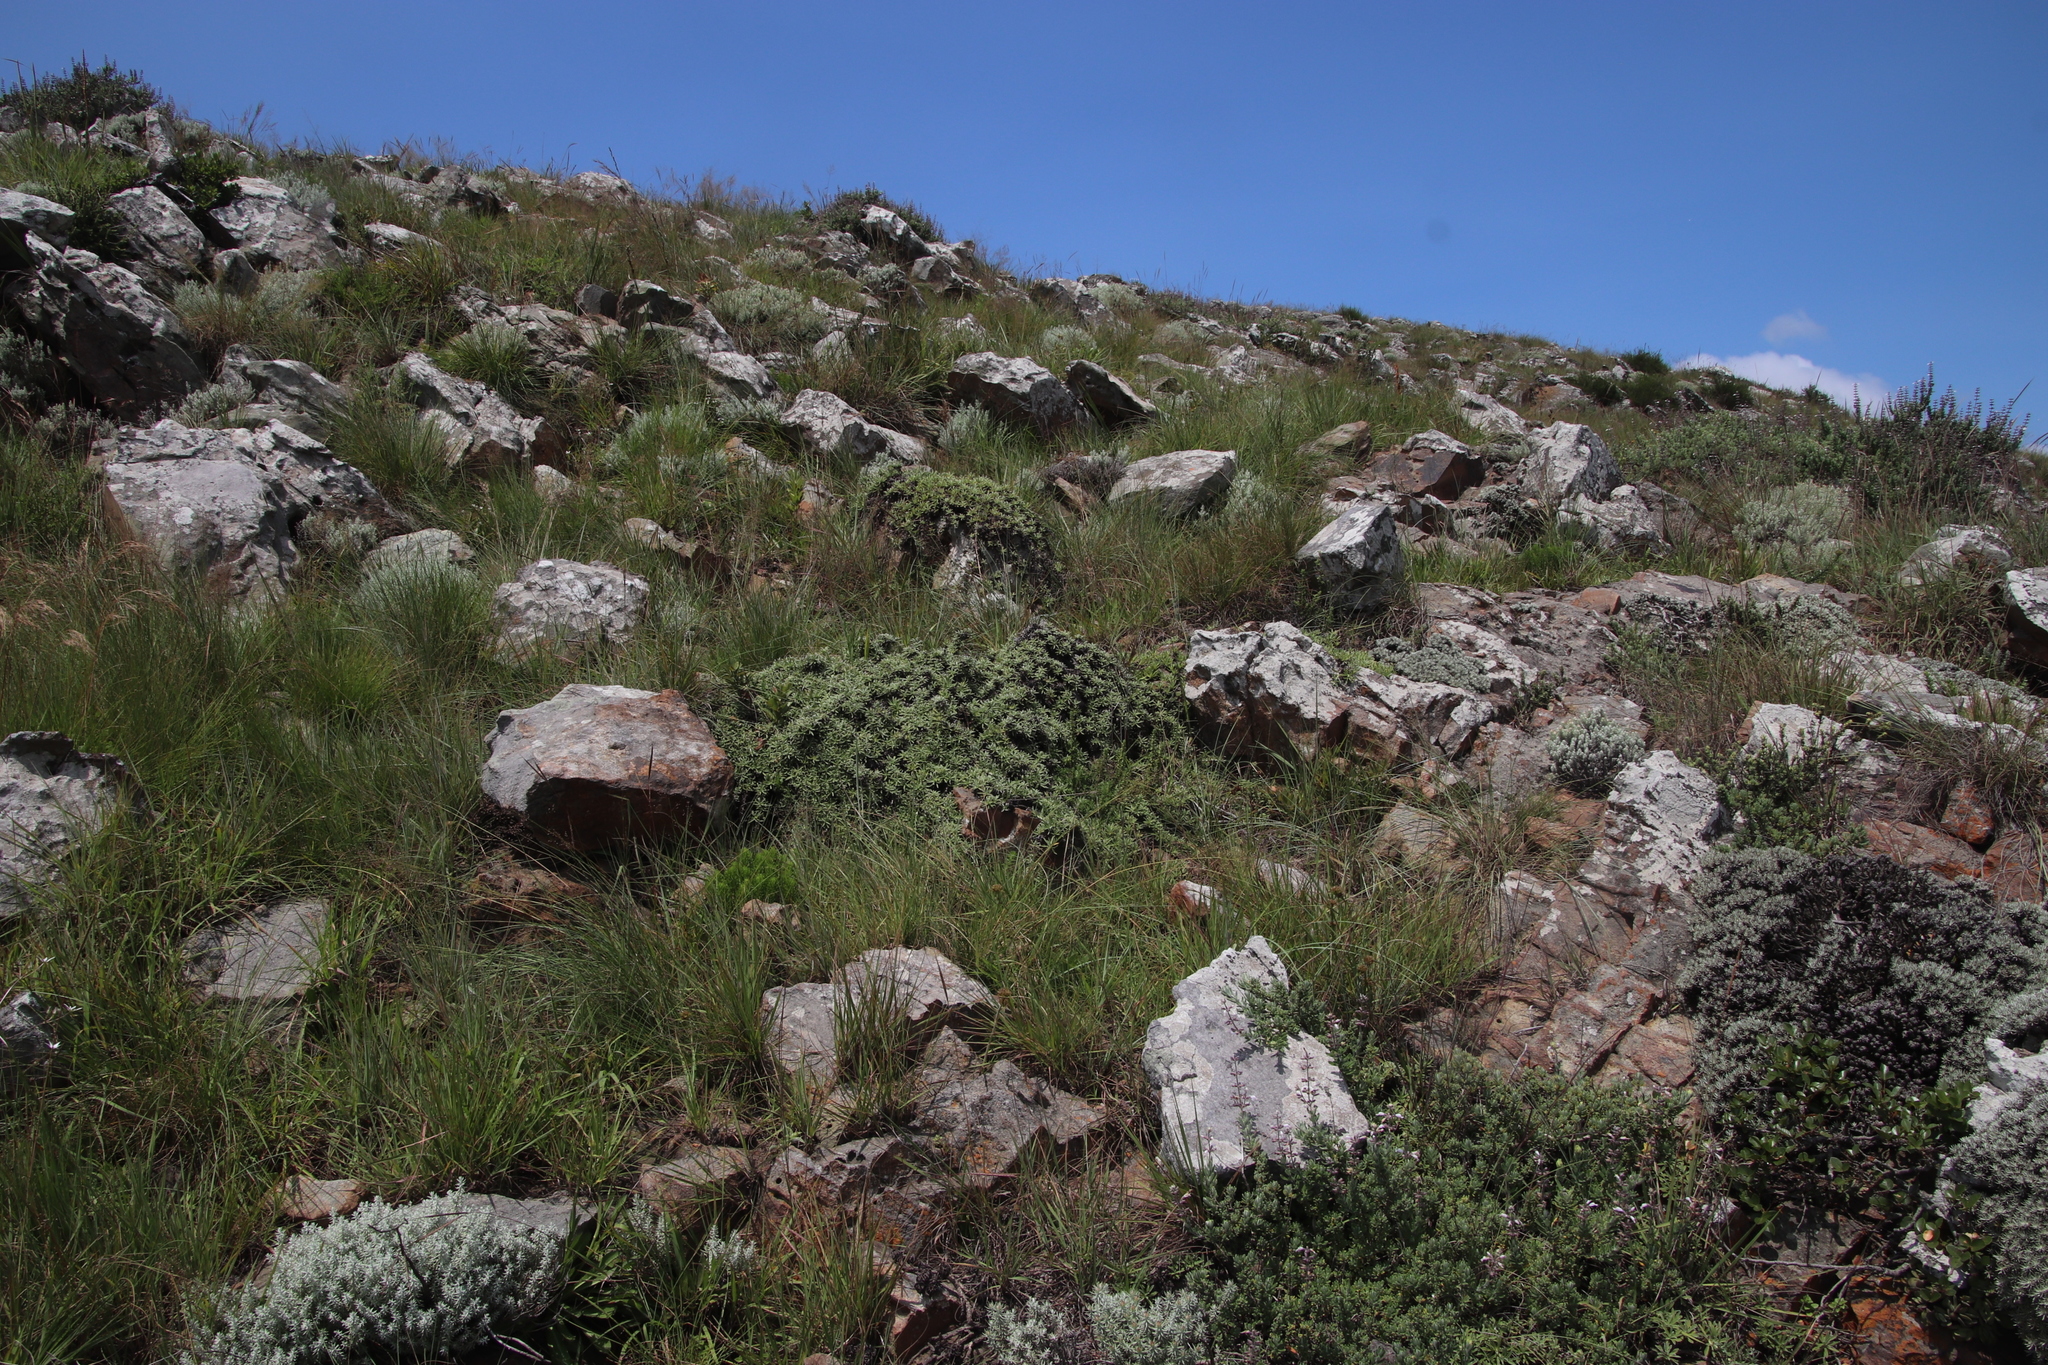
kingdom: Plantae
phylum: Tracheophyta
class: Magnoliopsida
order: Asterales
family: Asteraceae
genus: Helichrysum
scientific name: Helichrysum confertifolium
